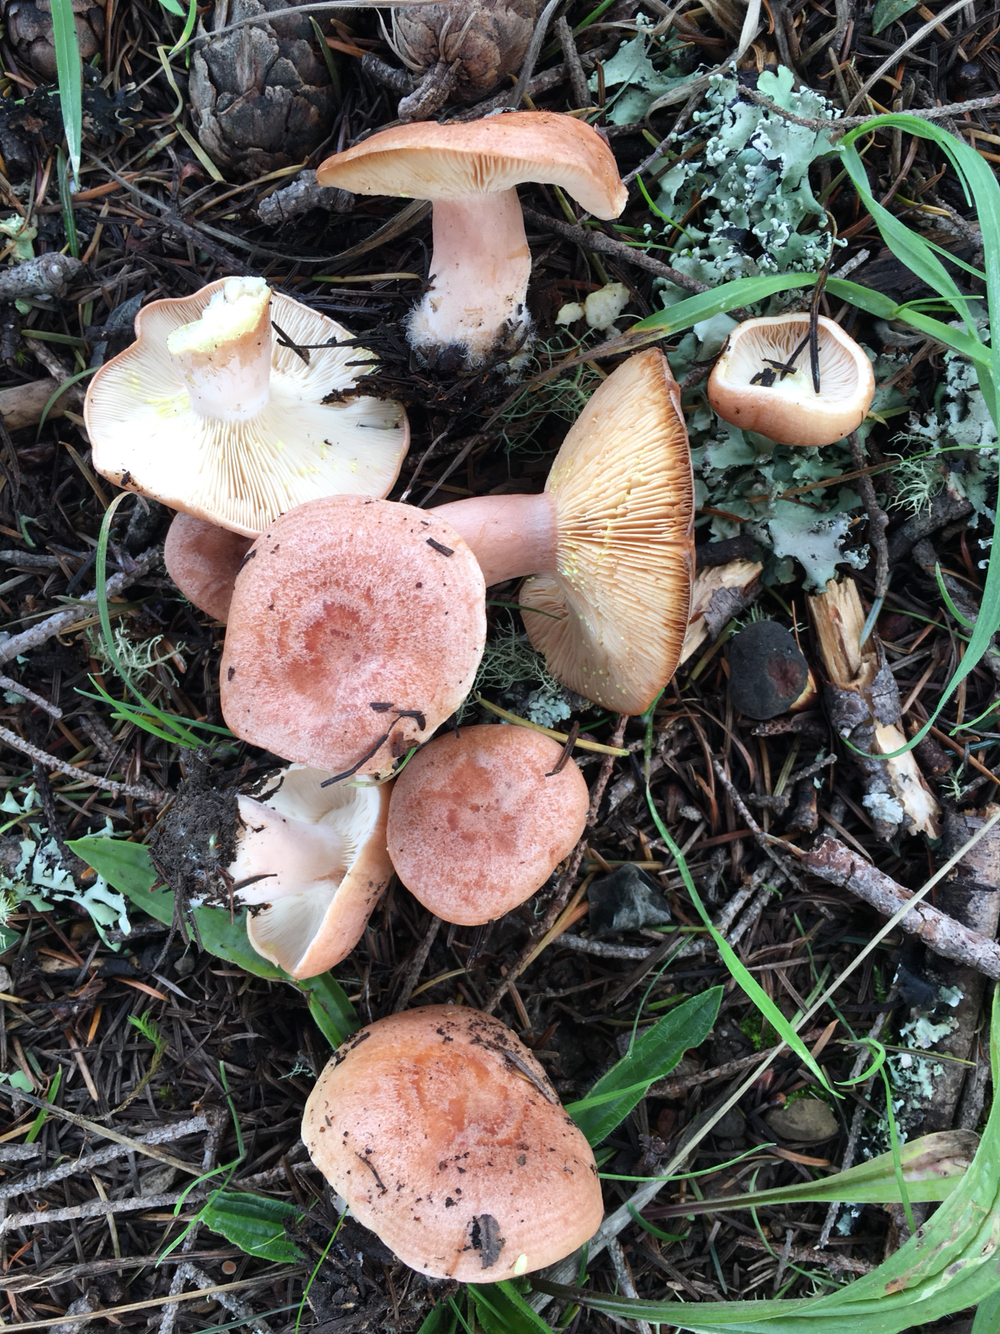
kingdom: Fungi
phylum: Basidiomycota
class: Agaricomycetes
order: Russulales
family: Russulaceae
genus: Lactarius
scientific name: Lactarius xanthogalactus
